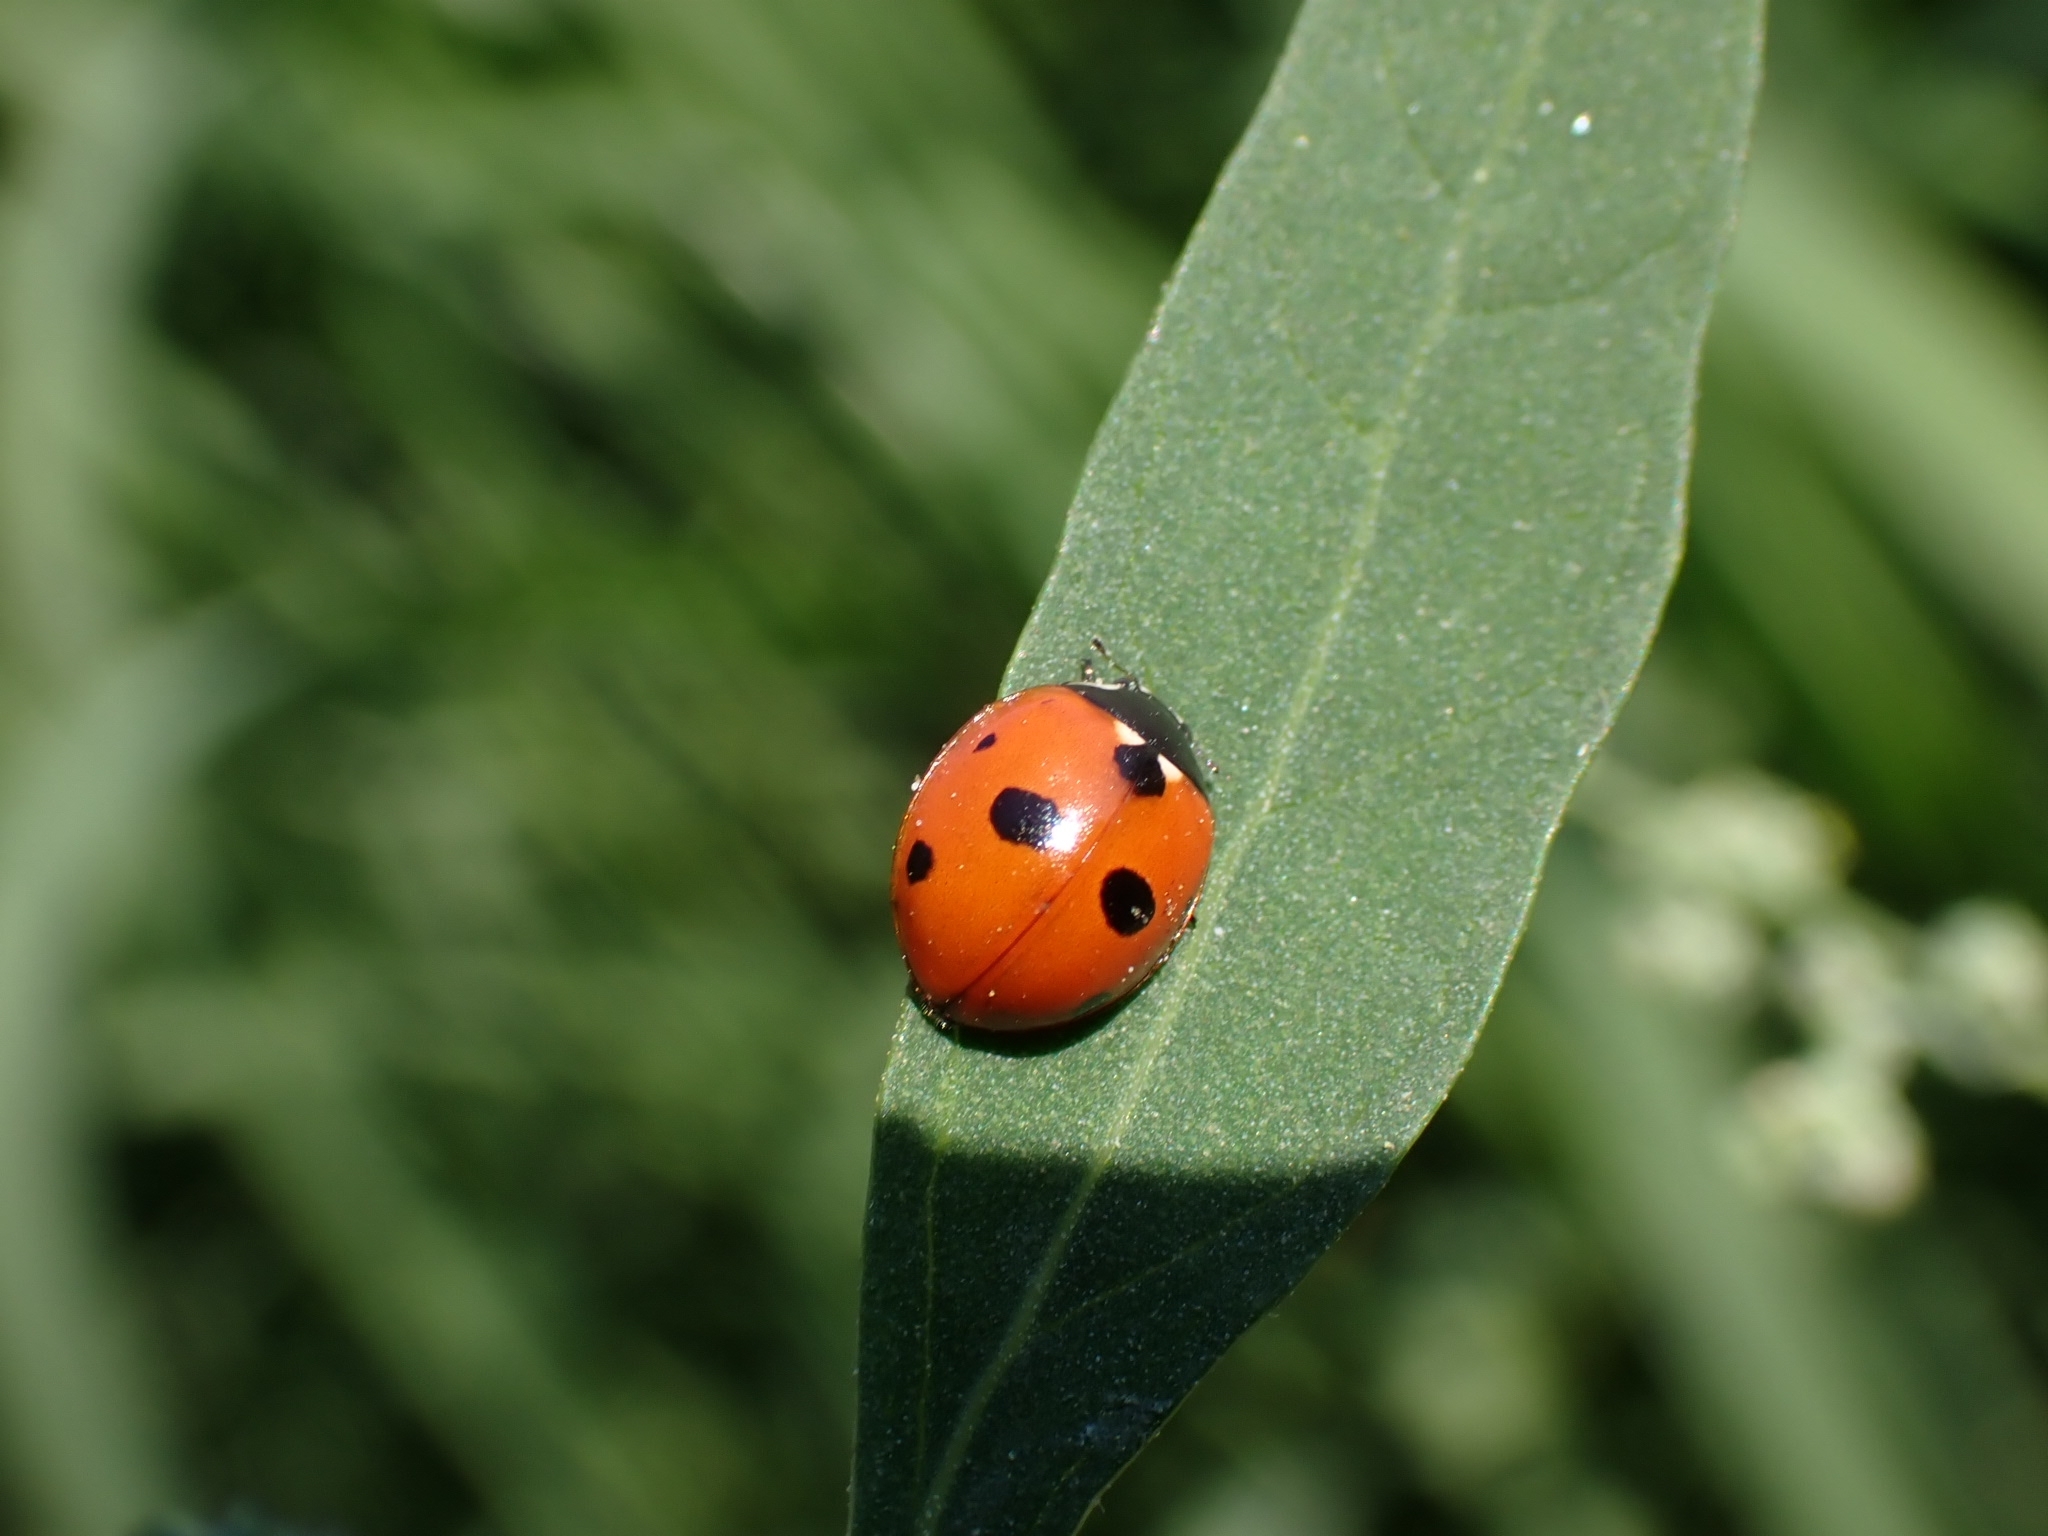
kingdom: Animalia
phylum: Arthropoda
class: Insecta
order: Coleoptera
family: Coccinellidae
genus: Coccinella
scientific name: Coccinella quinquepunctata
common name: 5-spot ladybird
